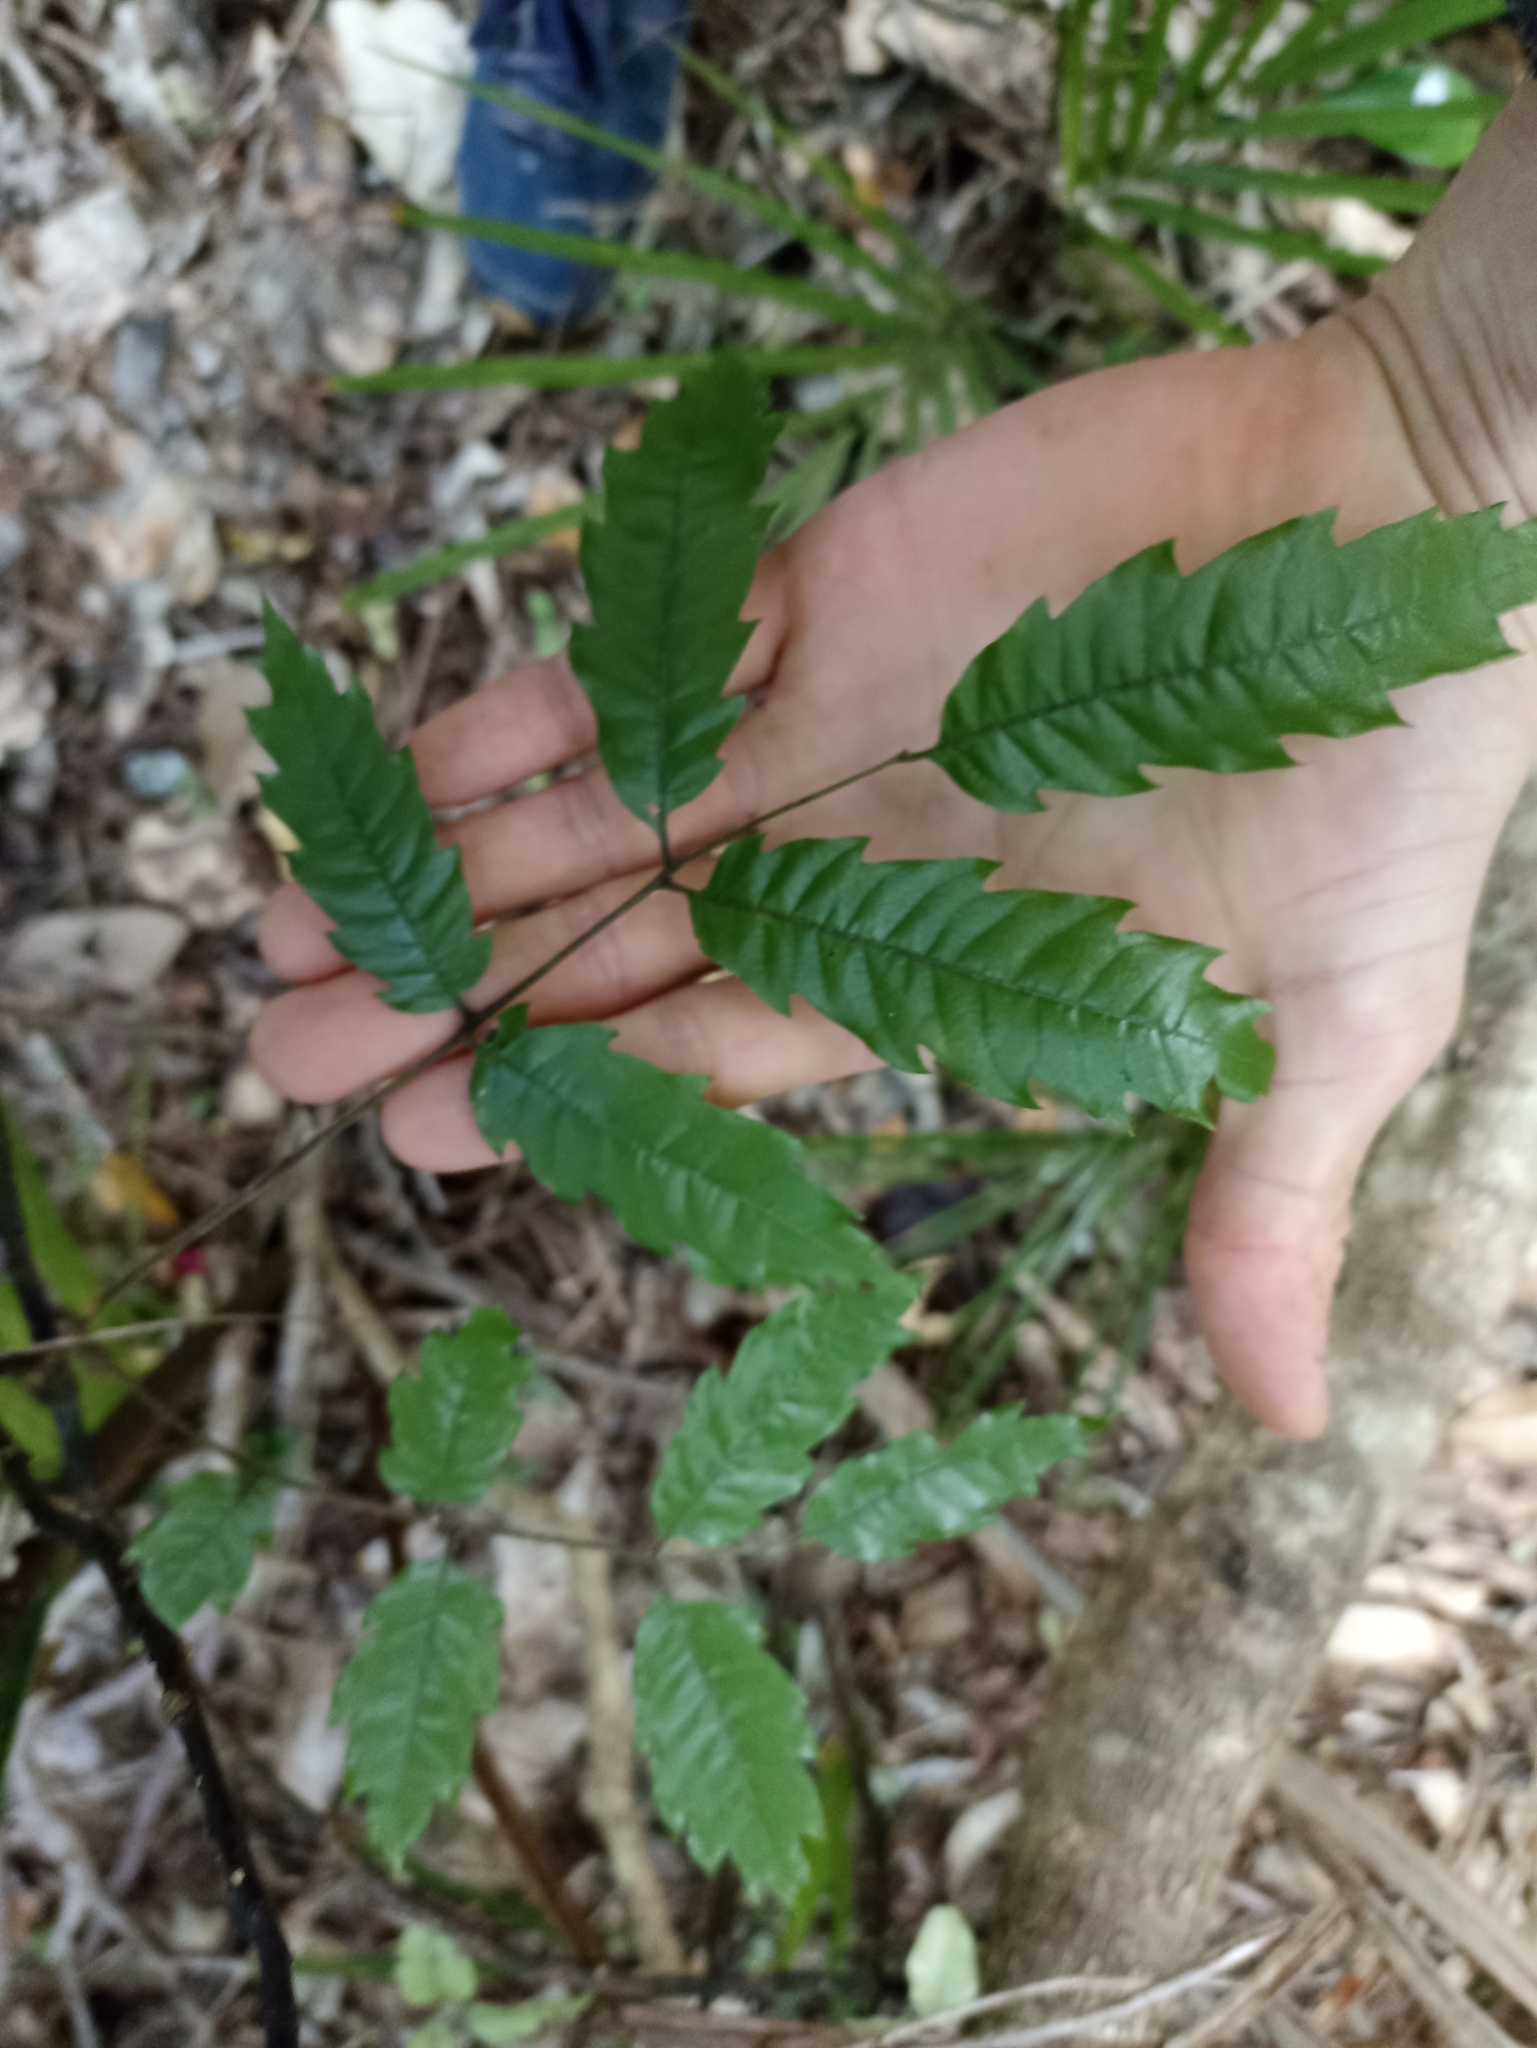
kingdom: Plantae
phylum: Tracheophyta
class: Magnoliopsida
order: Sapindales
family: Sapindaceae
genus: Alectryon
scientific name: Alectryon excelsus
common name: Three kings titoki
